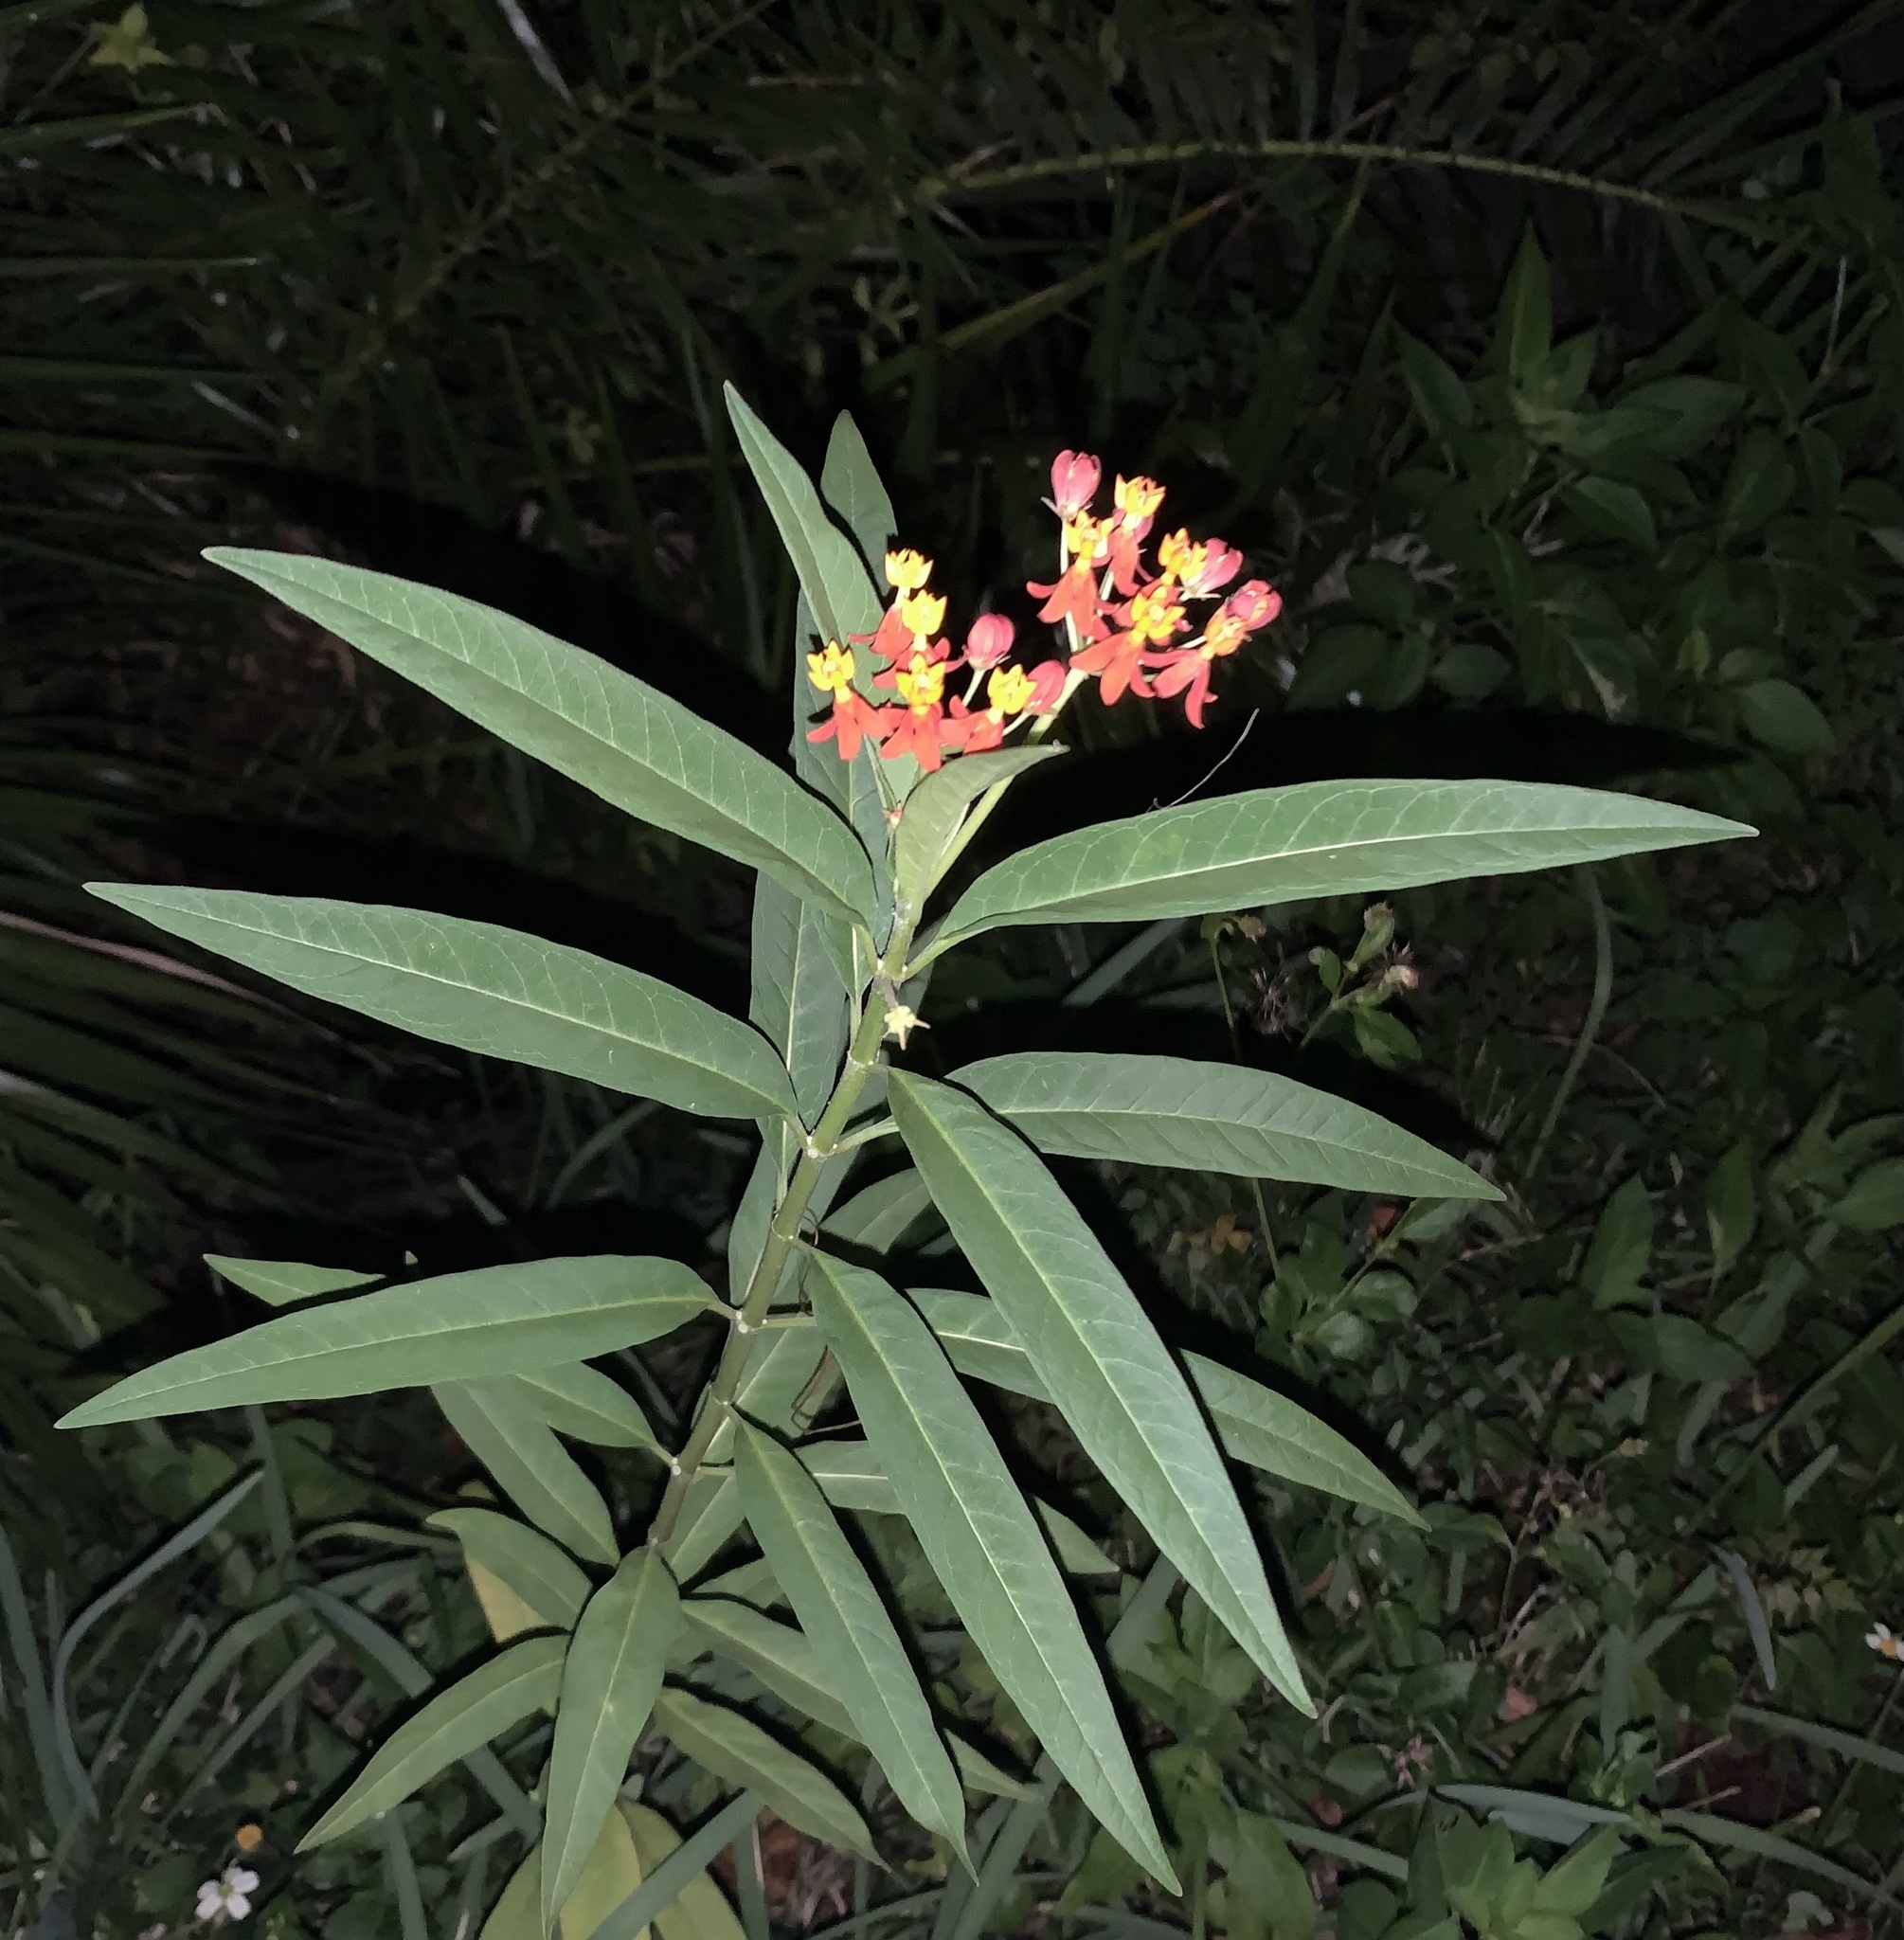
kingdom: Plantae
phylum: Tracheophyta
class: Magnoliopsida
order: Gentianales
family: Apocynaceae
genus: Asclepias
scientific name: Asclepias curassavica
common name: Bloodflower
